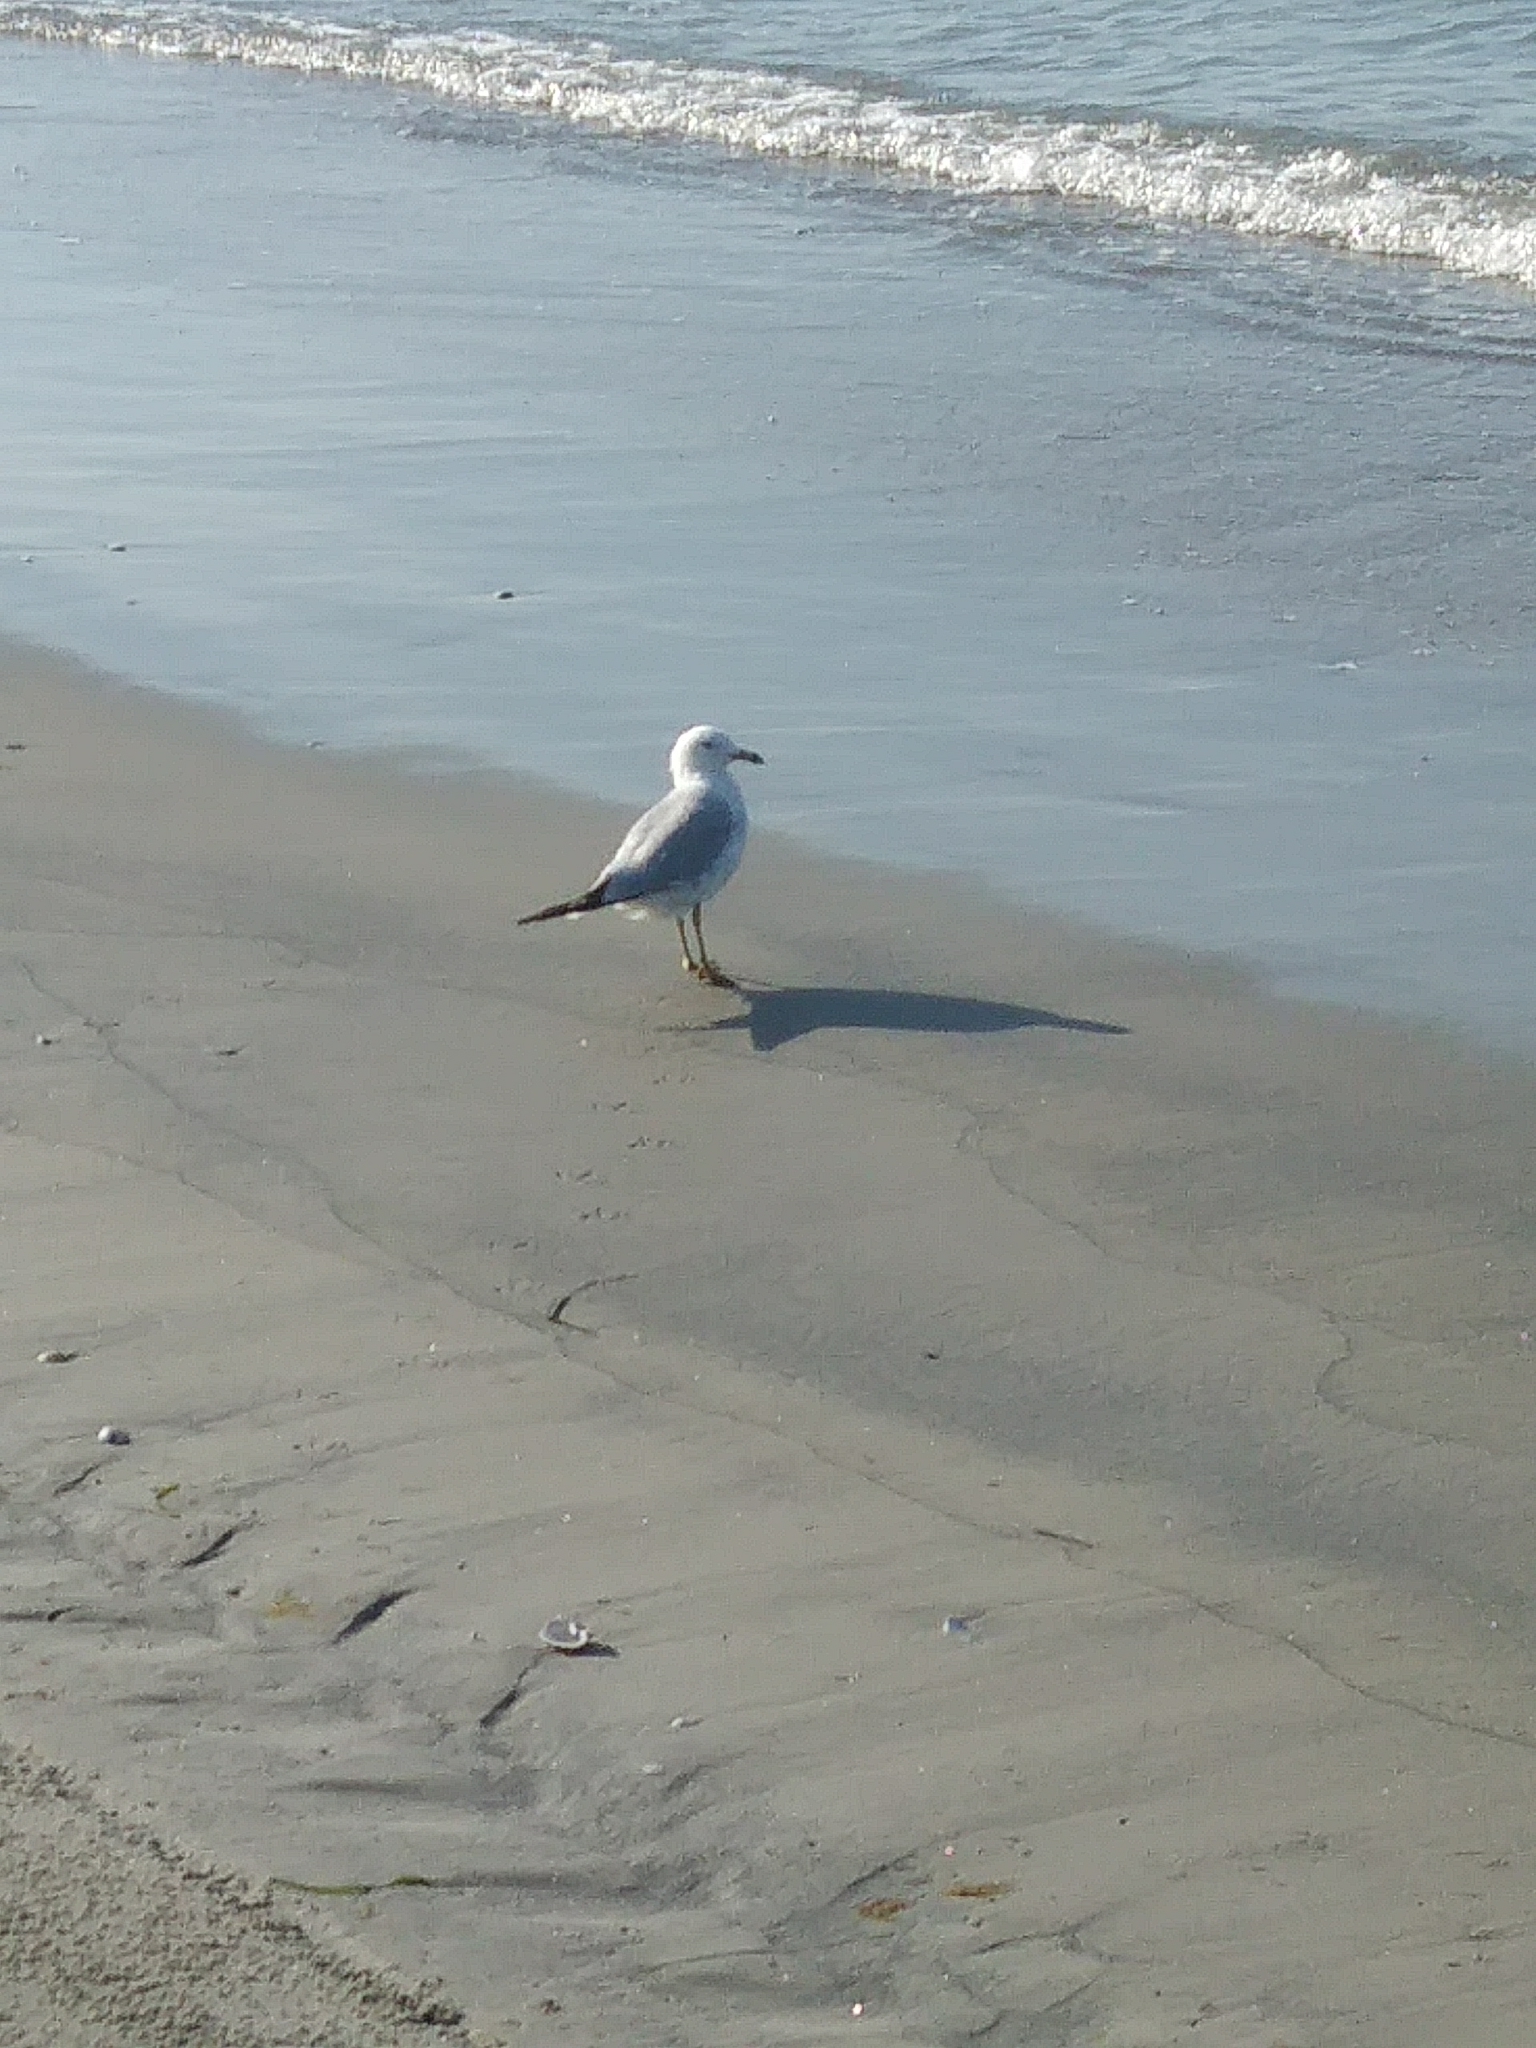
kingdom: Animalia
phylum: Chordata
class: Aves
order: Charadriiformes
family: Laridae
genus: Larus
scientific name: Larus delawarensis
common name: Ring-billed gull
